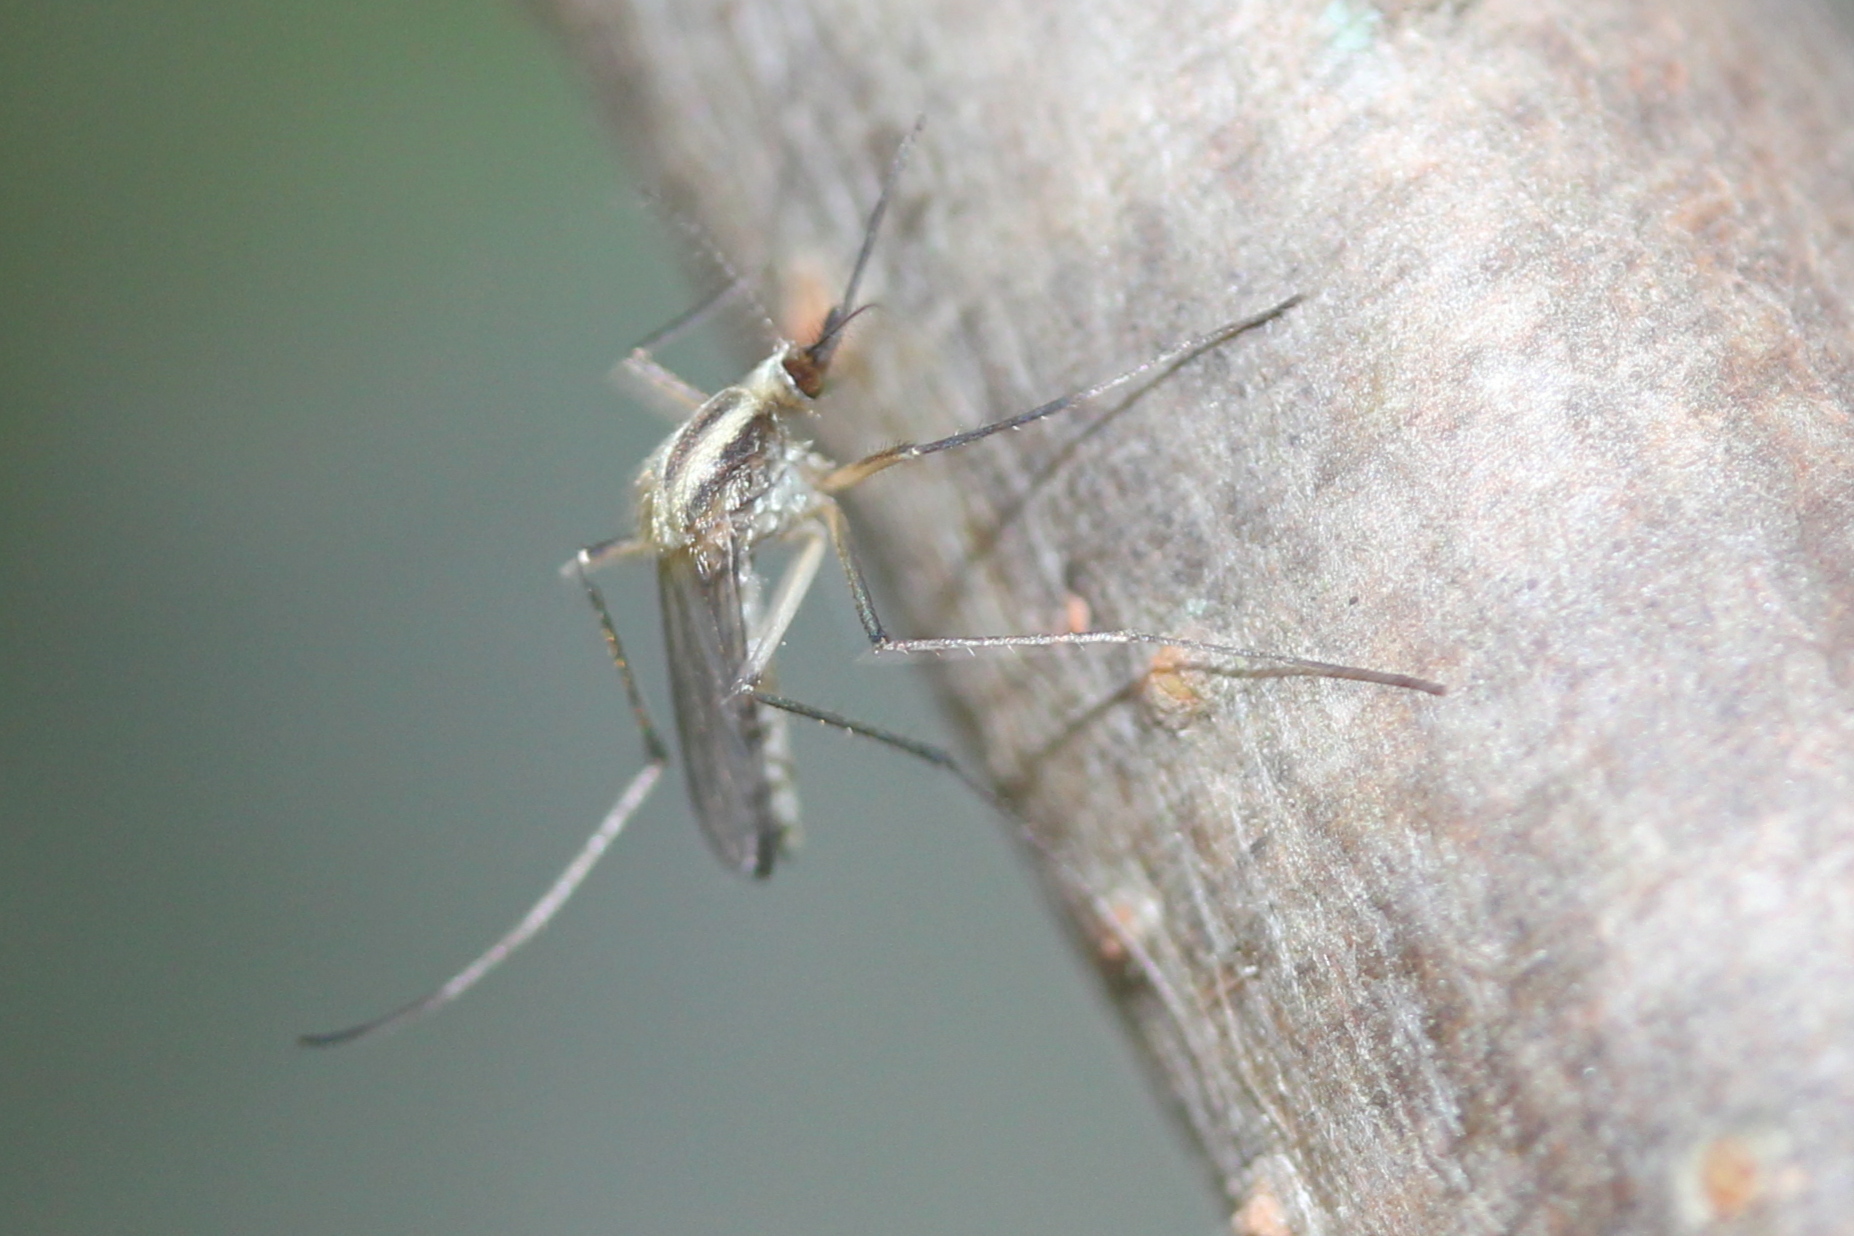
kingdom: Animalia
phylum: Arthropoda
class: Insecta
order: Diptera
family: Culicidae
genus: Aedes
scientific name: Aedes trivittatus
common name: Plains floodwater mosquito
